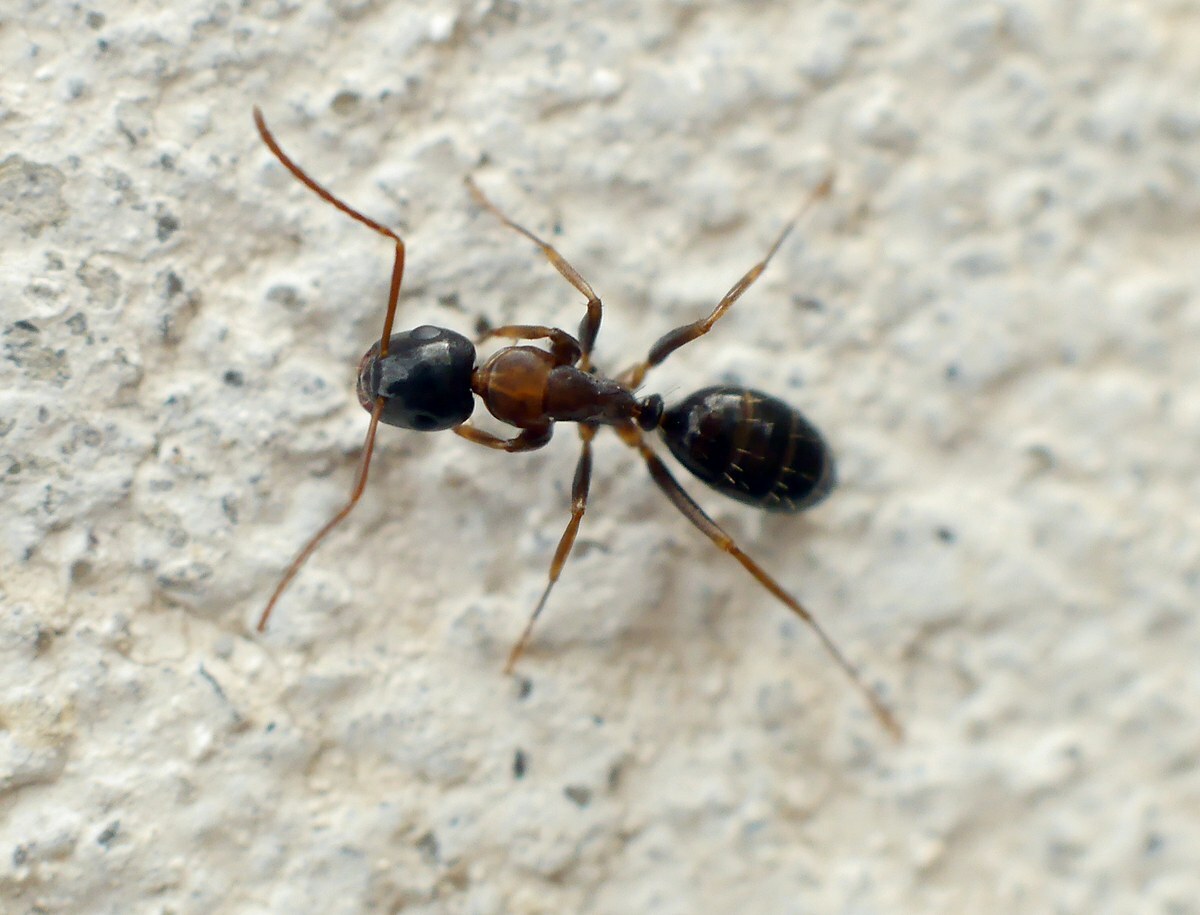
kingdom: Animalia
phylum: Arthropoda
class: Insecta
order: Hymenoptera
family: Formicidae
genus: Camponotus
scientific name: Camponotus fallax
